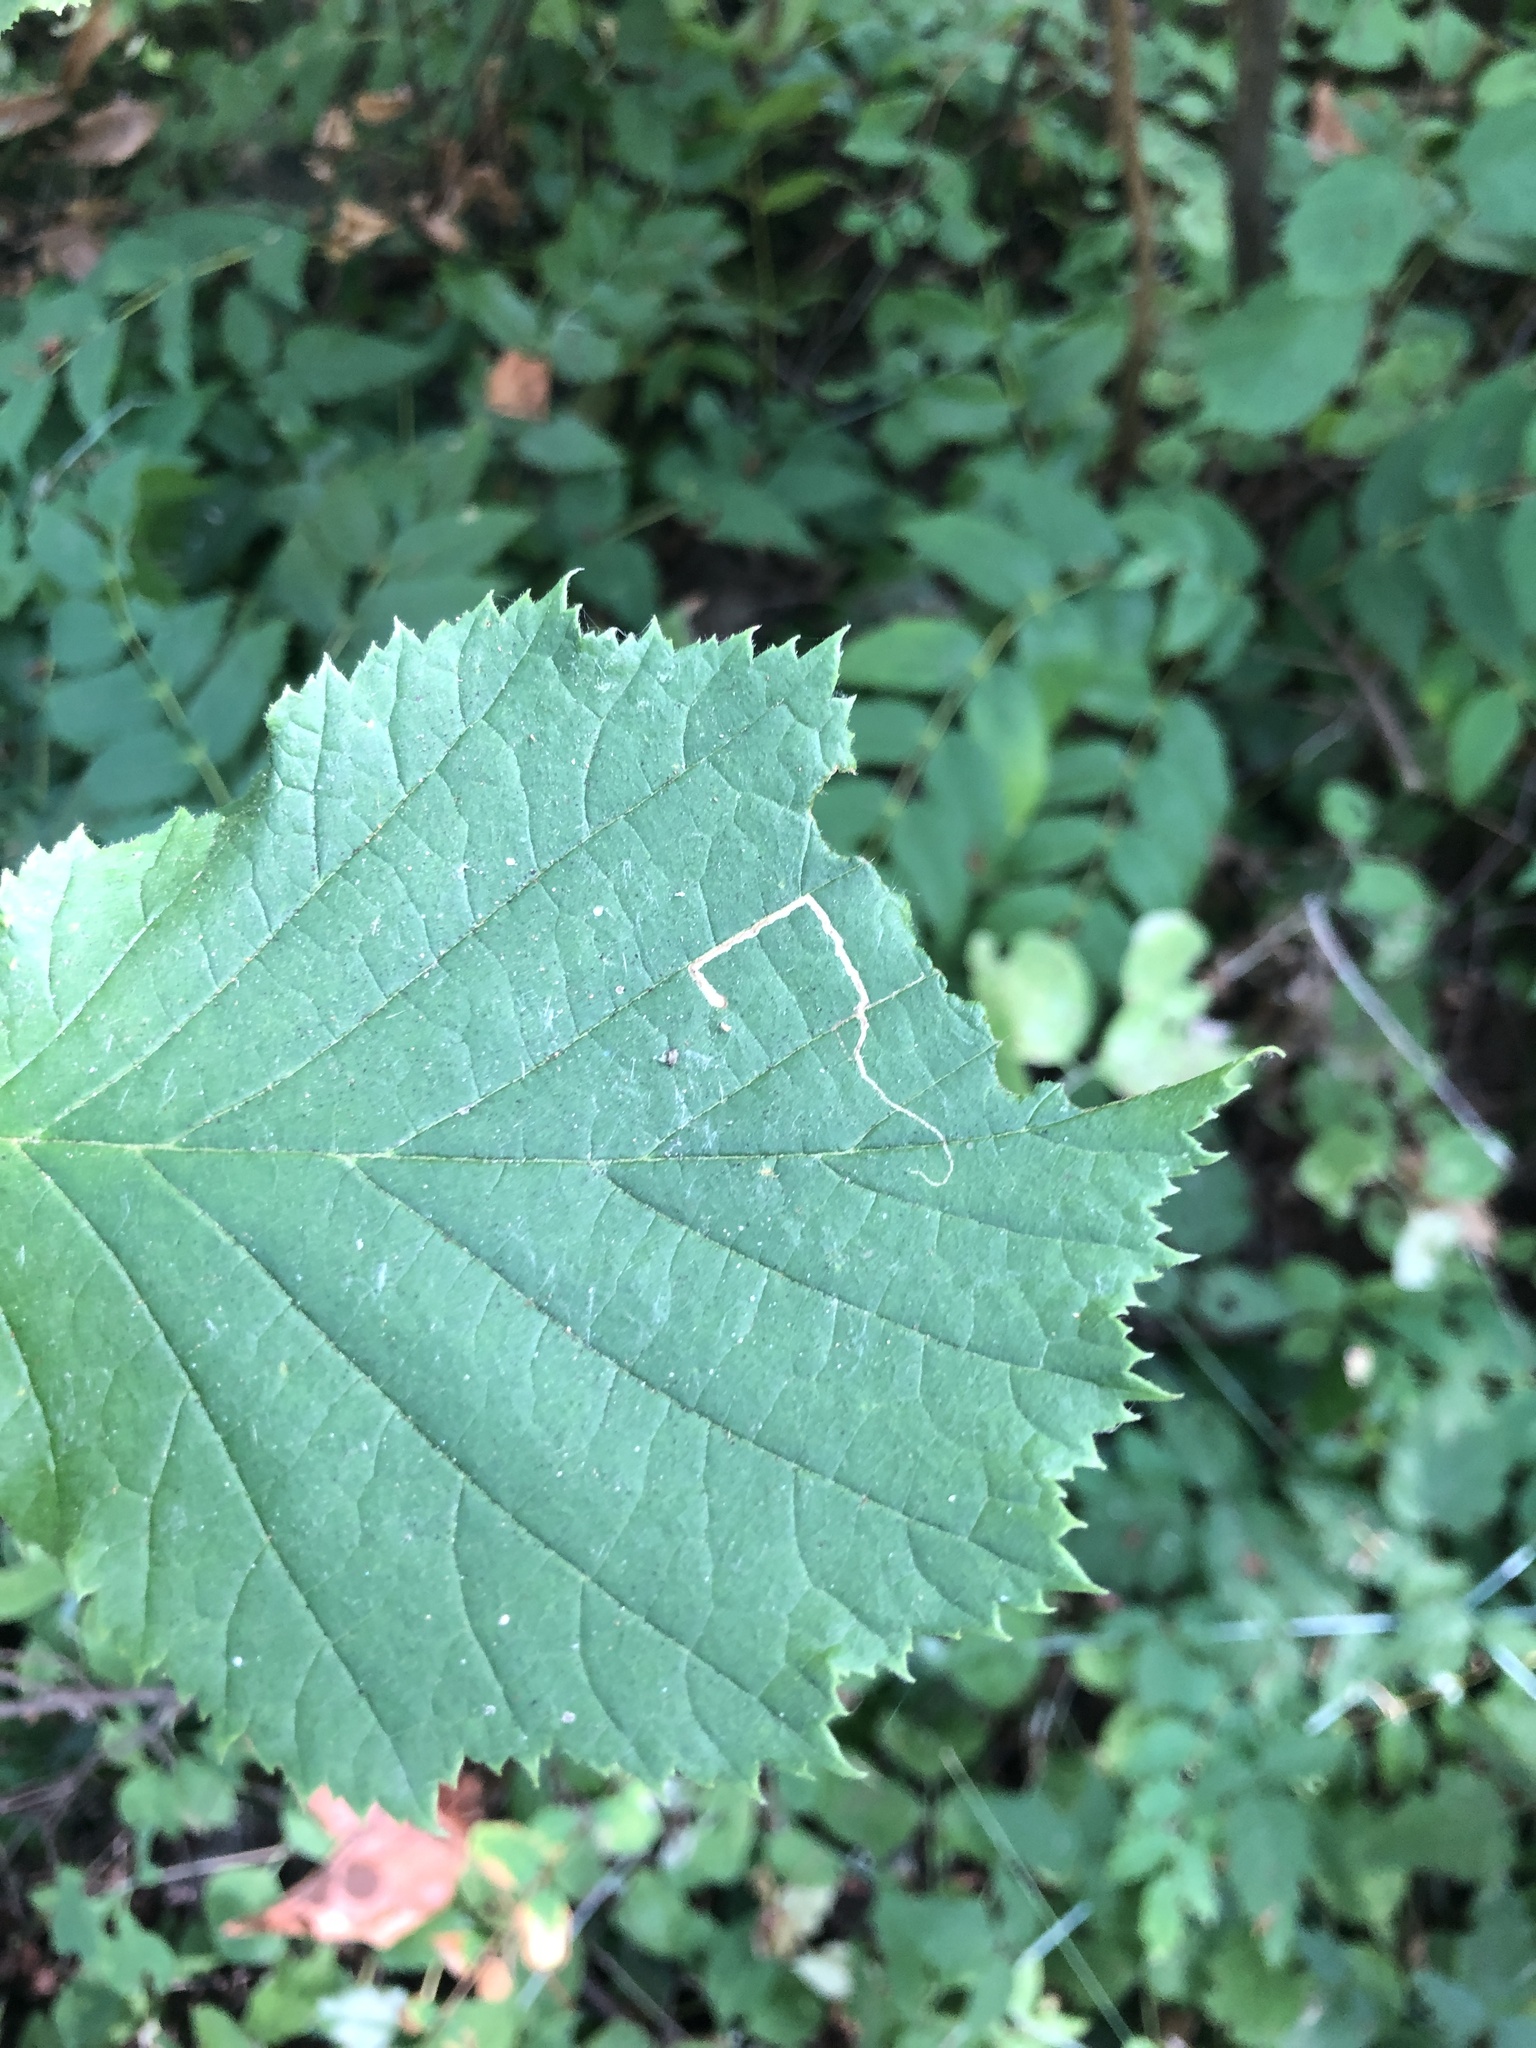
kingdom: Animalia
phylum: Arthropoda
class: Insecta
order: Lepidoptera
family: Nepticulidae
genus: Stigmella
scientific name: Stigmella microtheriella
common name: Nut-tree pigmy
